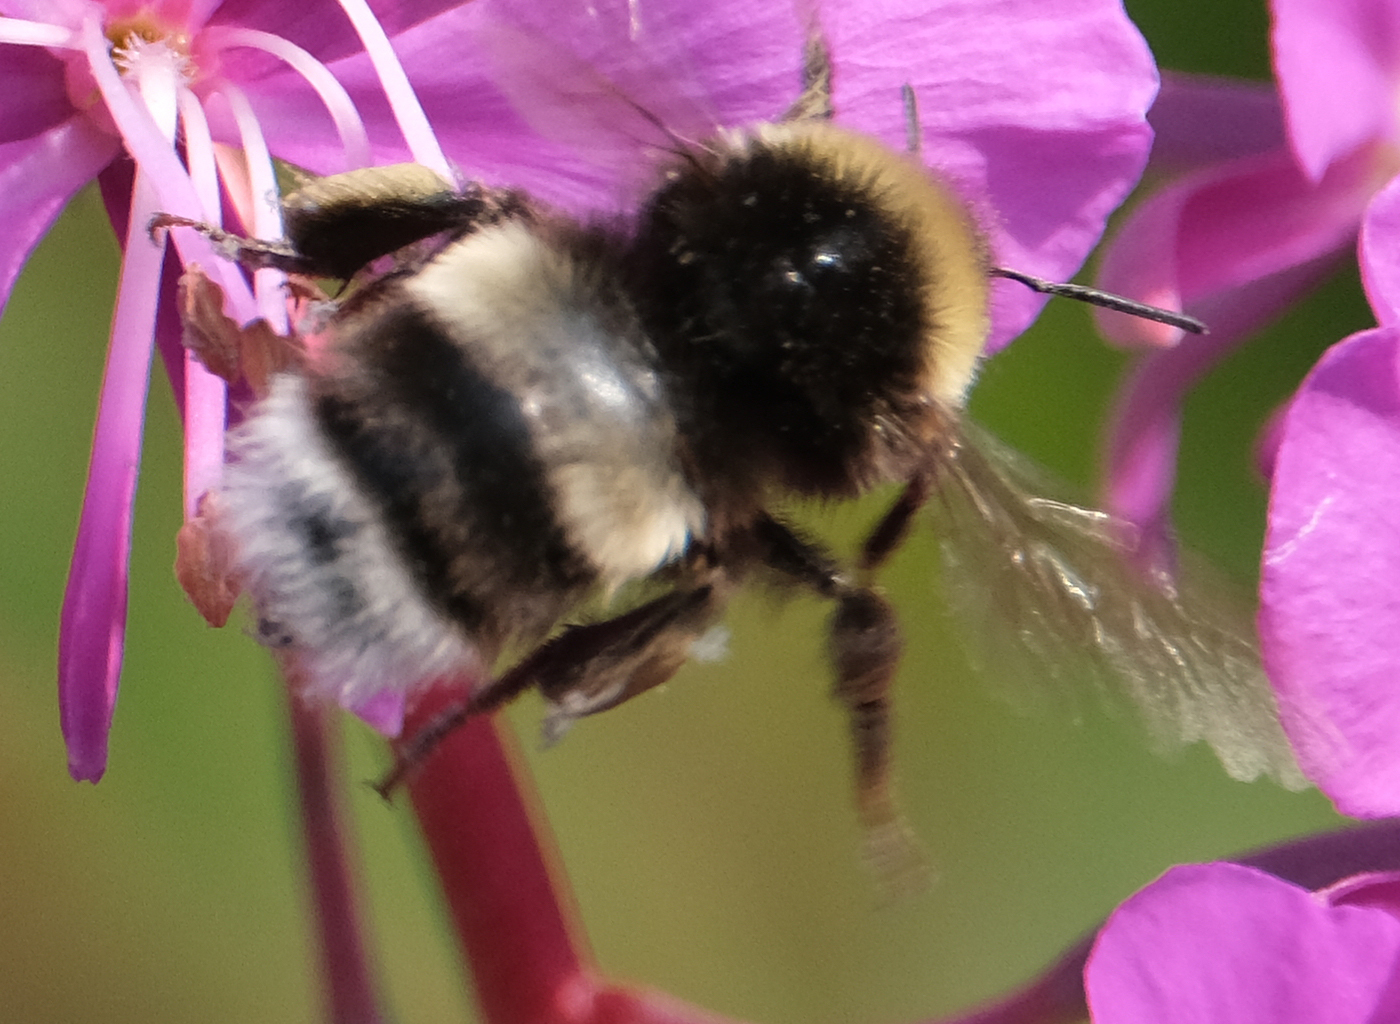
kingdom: Animalia
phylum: Arthropoda
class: Insecta
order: Hymenoptera
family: Apidae
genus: Bombus
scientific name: Bombus cryptarum
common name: Cryptic bumblebee
